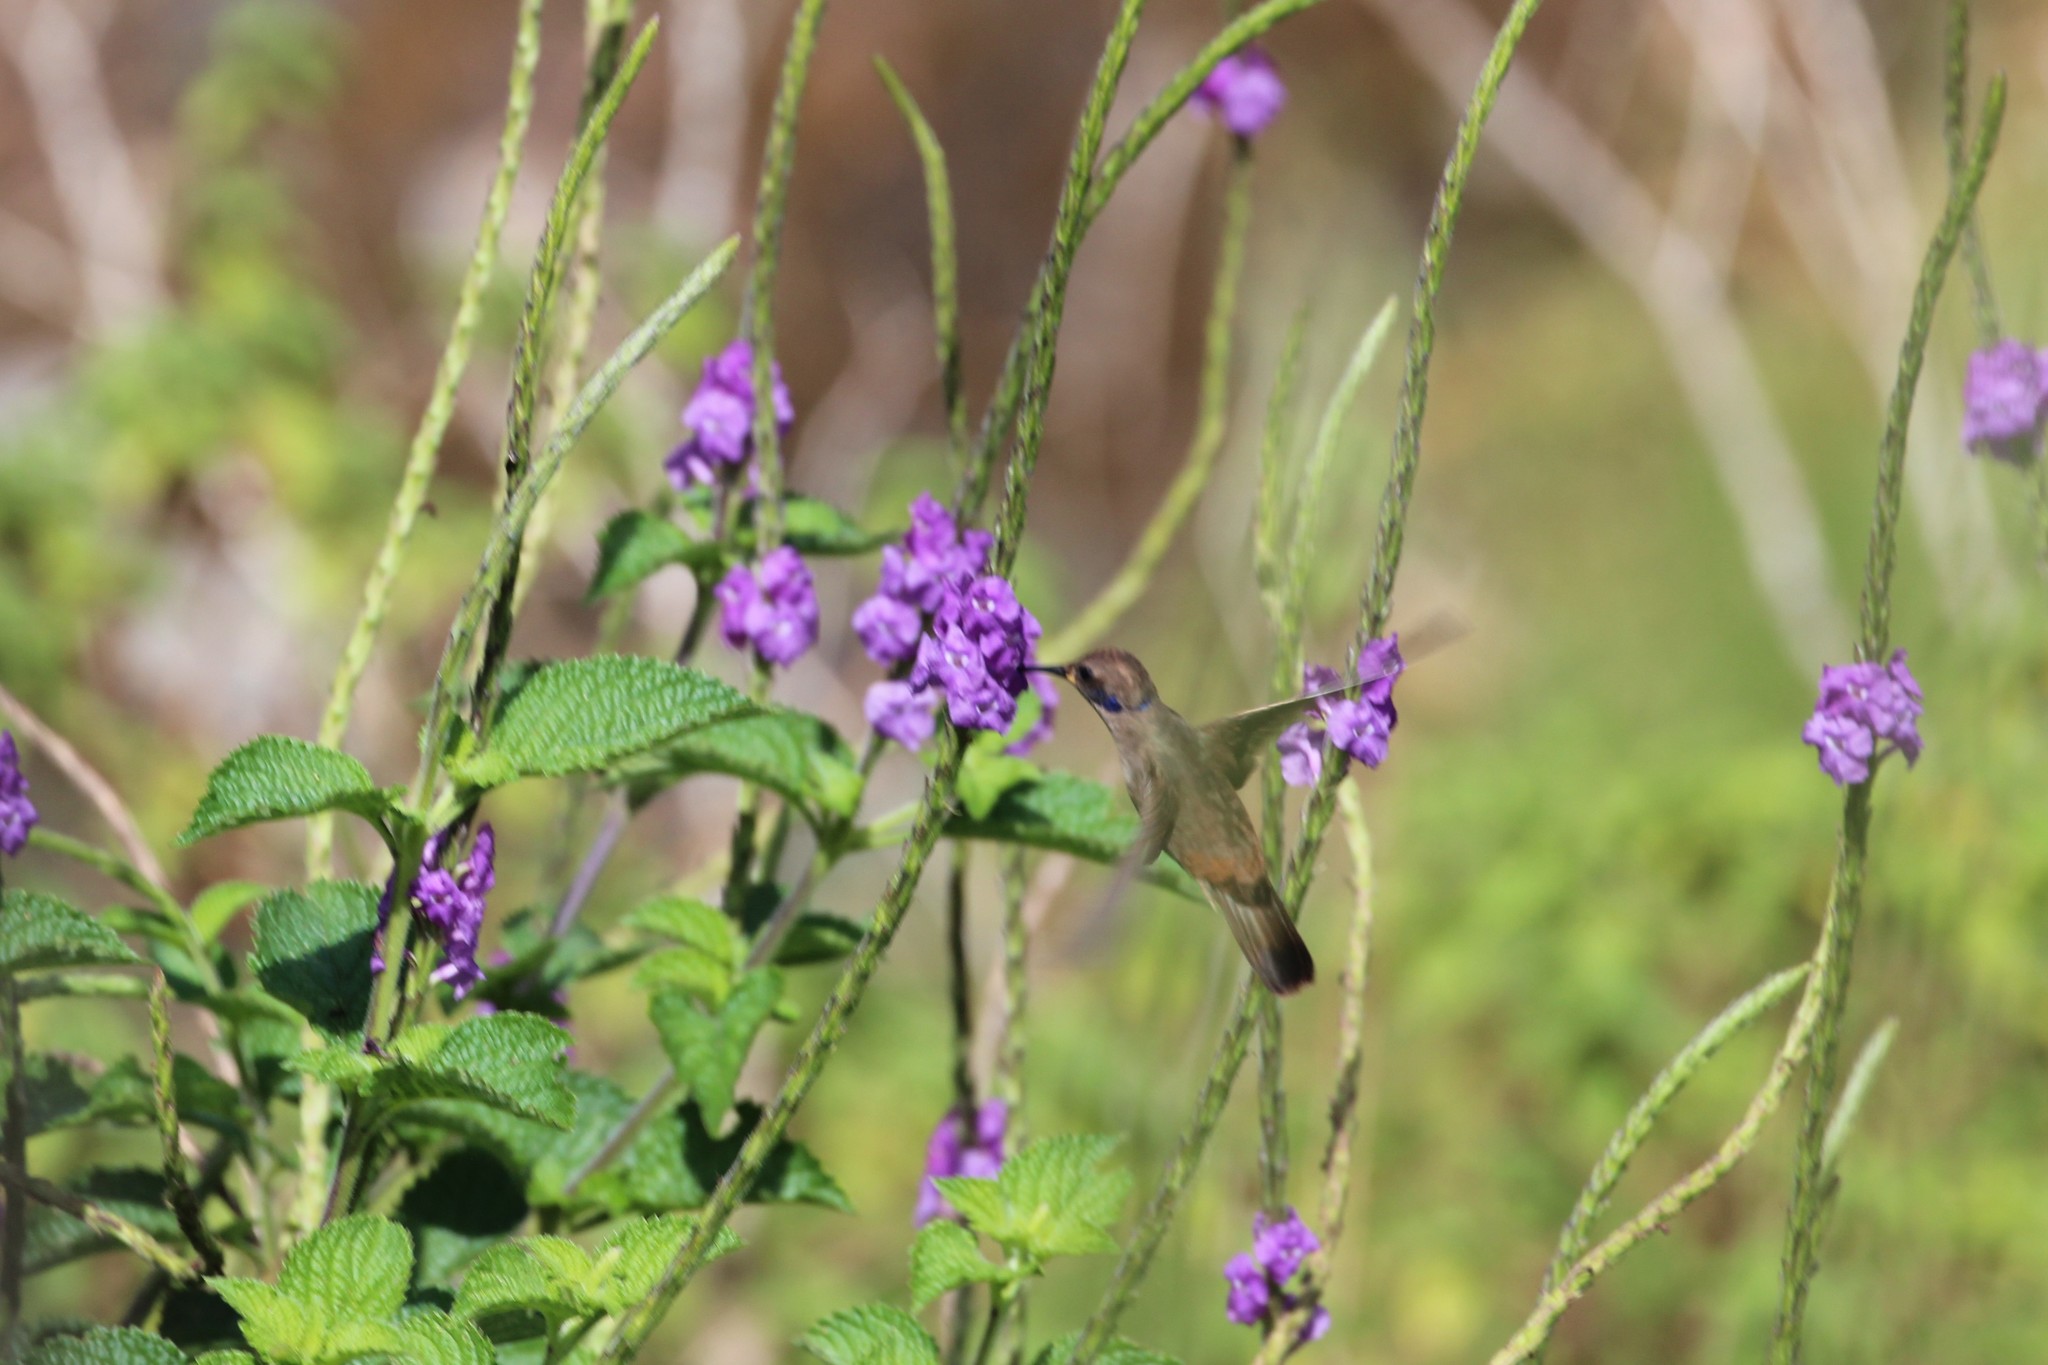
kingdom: Animalia
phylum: Chordata
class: Aves
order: Apodiformes
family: Trochilidae
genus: Colibri
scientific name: Colibri delphinae
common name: Brown violetear
